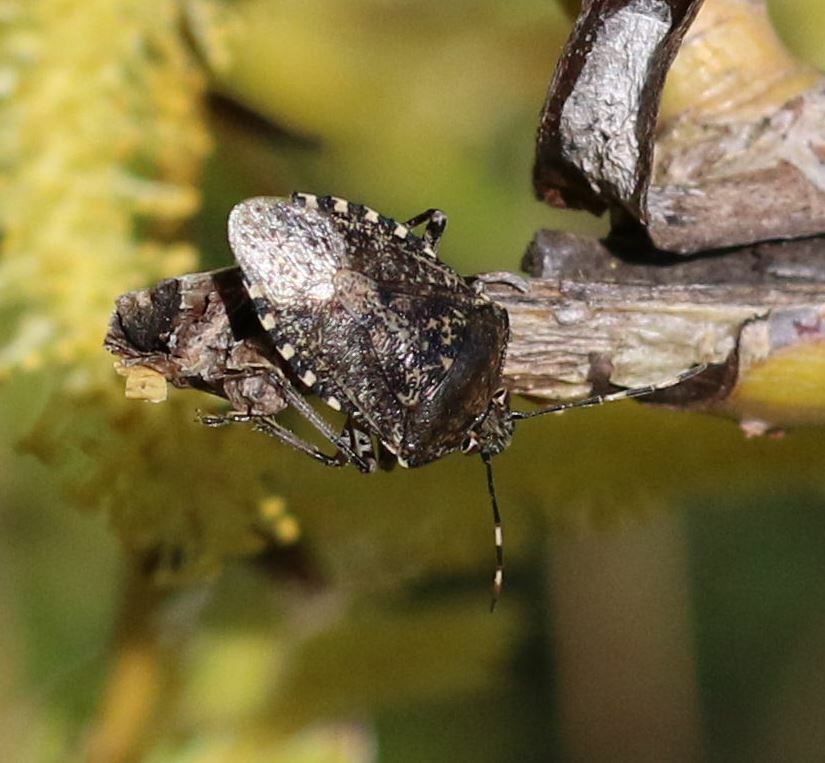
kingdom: Animalia
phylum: Arthropoda
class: Insecta
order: Hemiptera
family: Pentatomidae
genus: Rhaphigaster
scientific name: Rhaphigaster nebulosa
